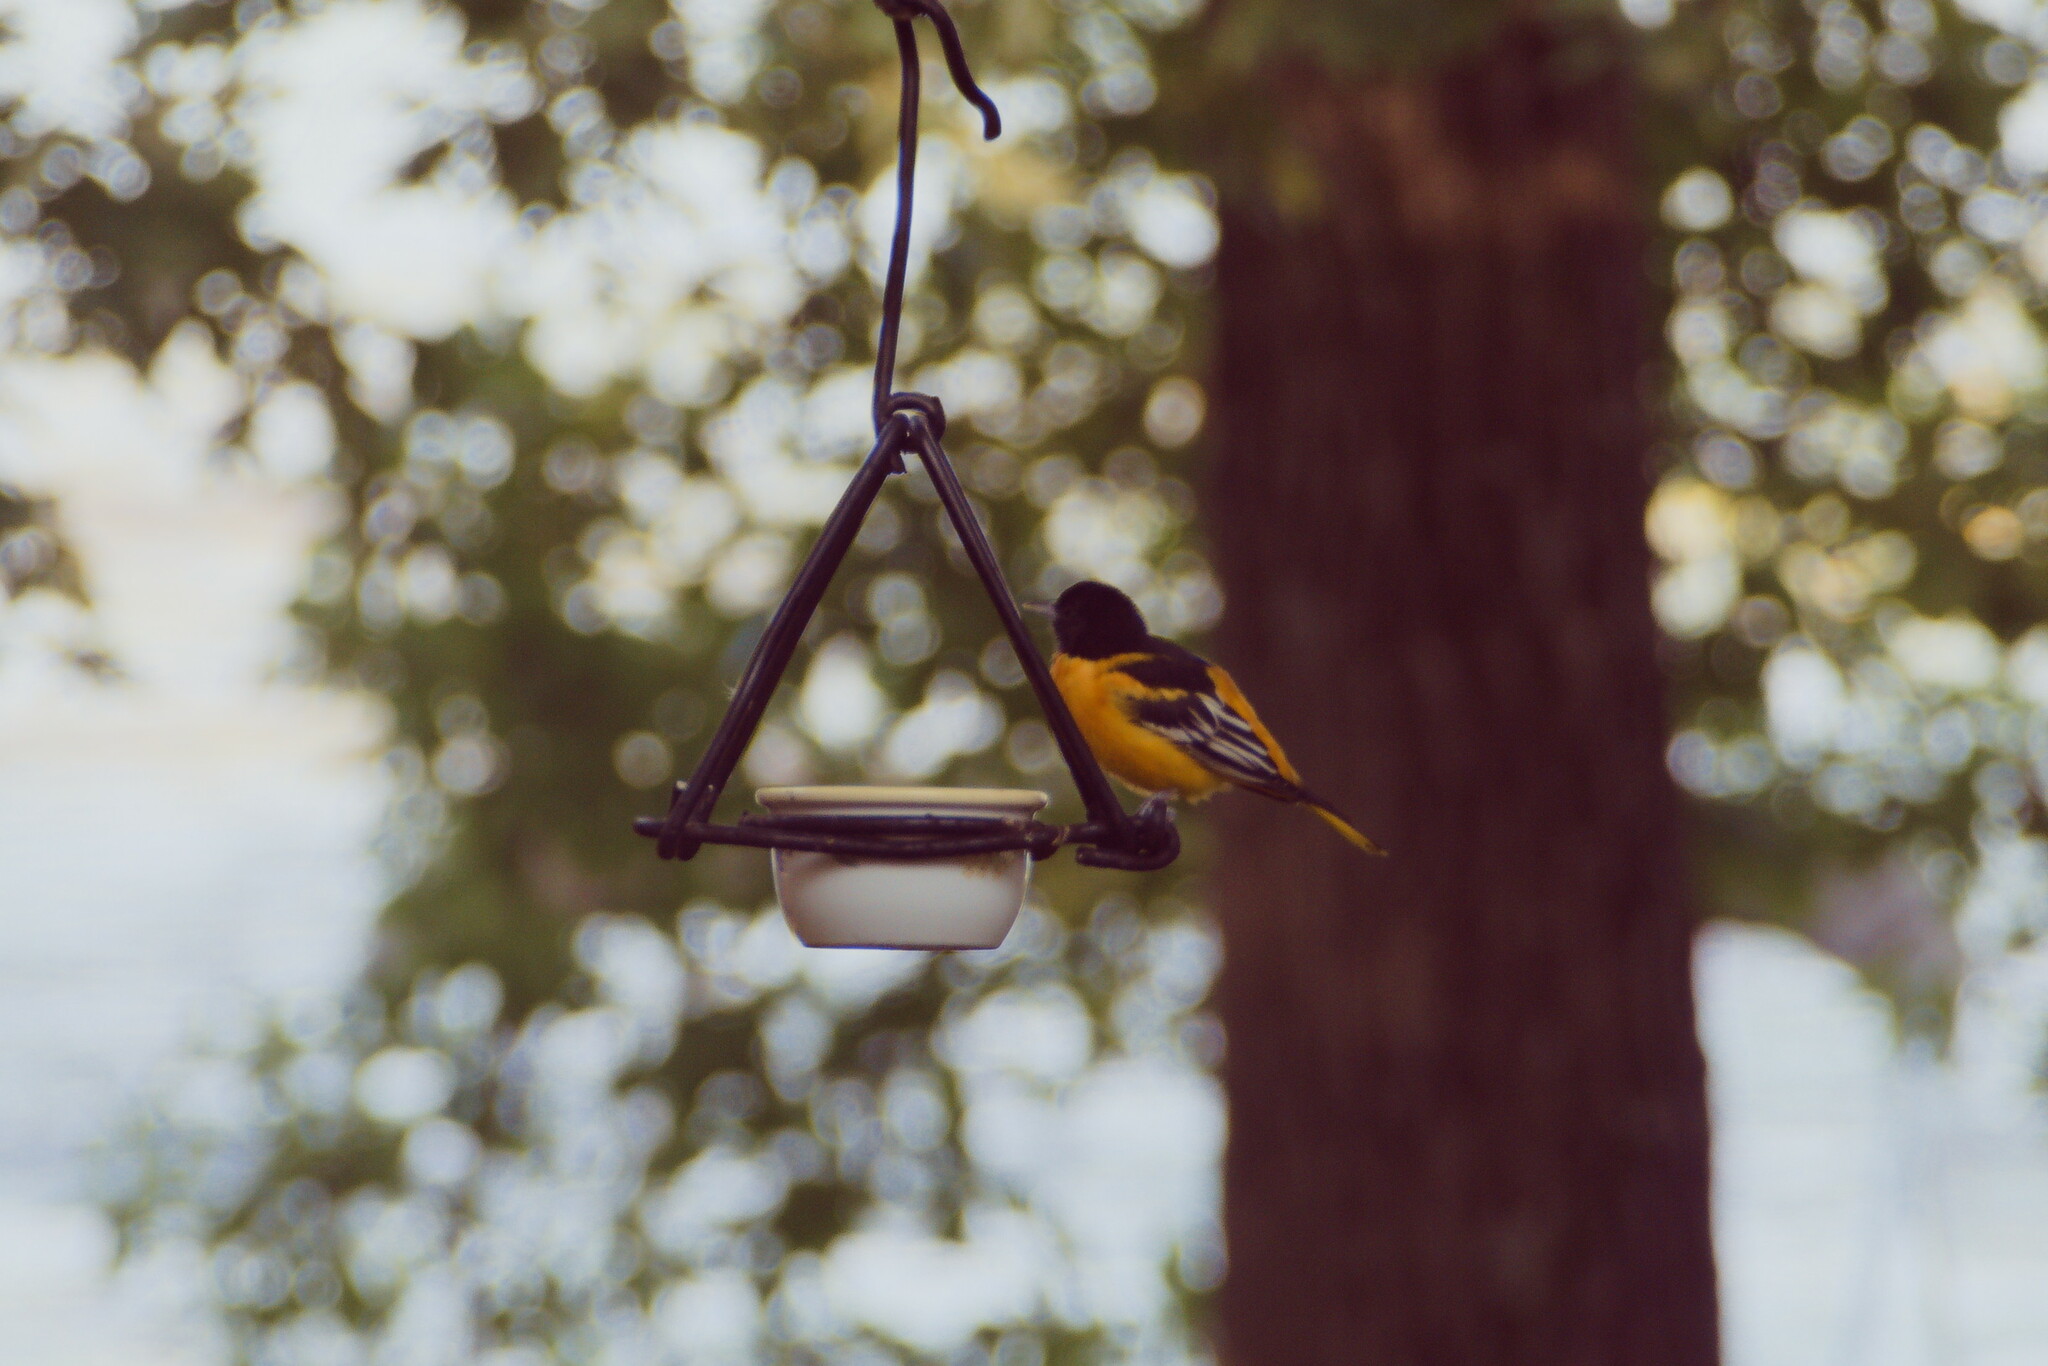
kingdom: Animalia
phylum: Chordata
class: Aves
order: Passeriformes
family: Icteridae
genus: Icterus
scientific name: Icterus galbula
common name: Baltimore oriole
